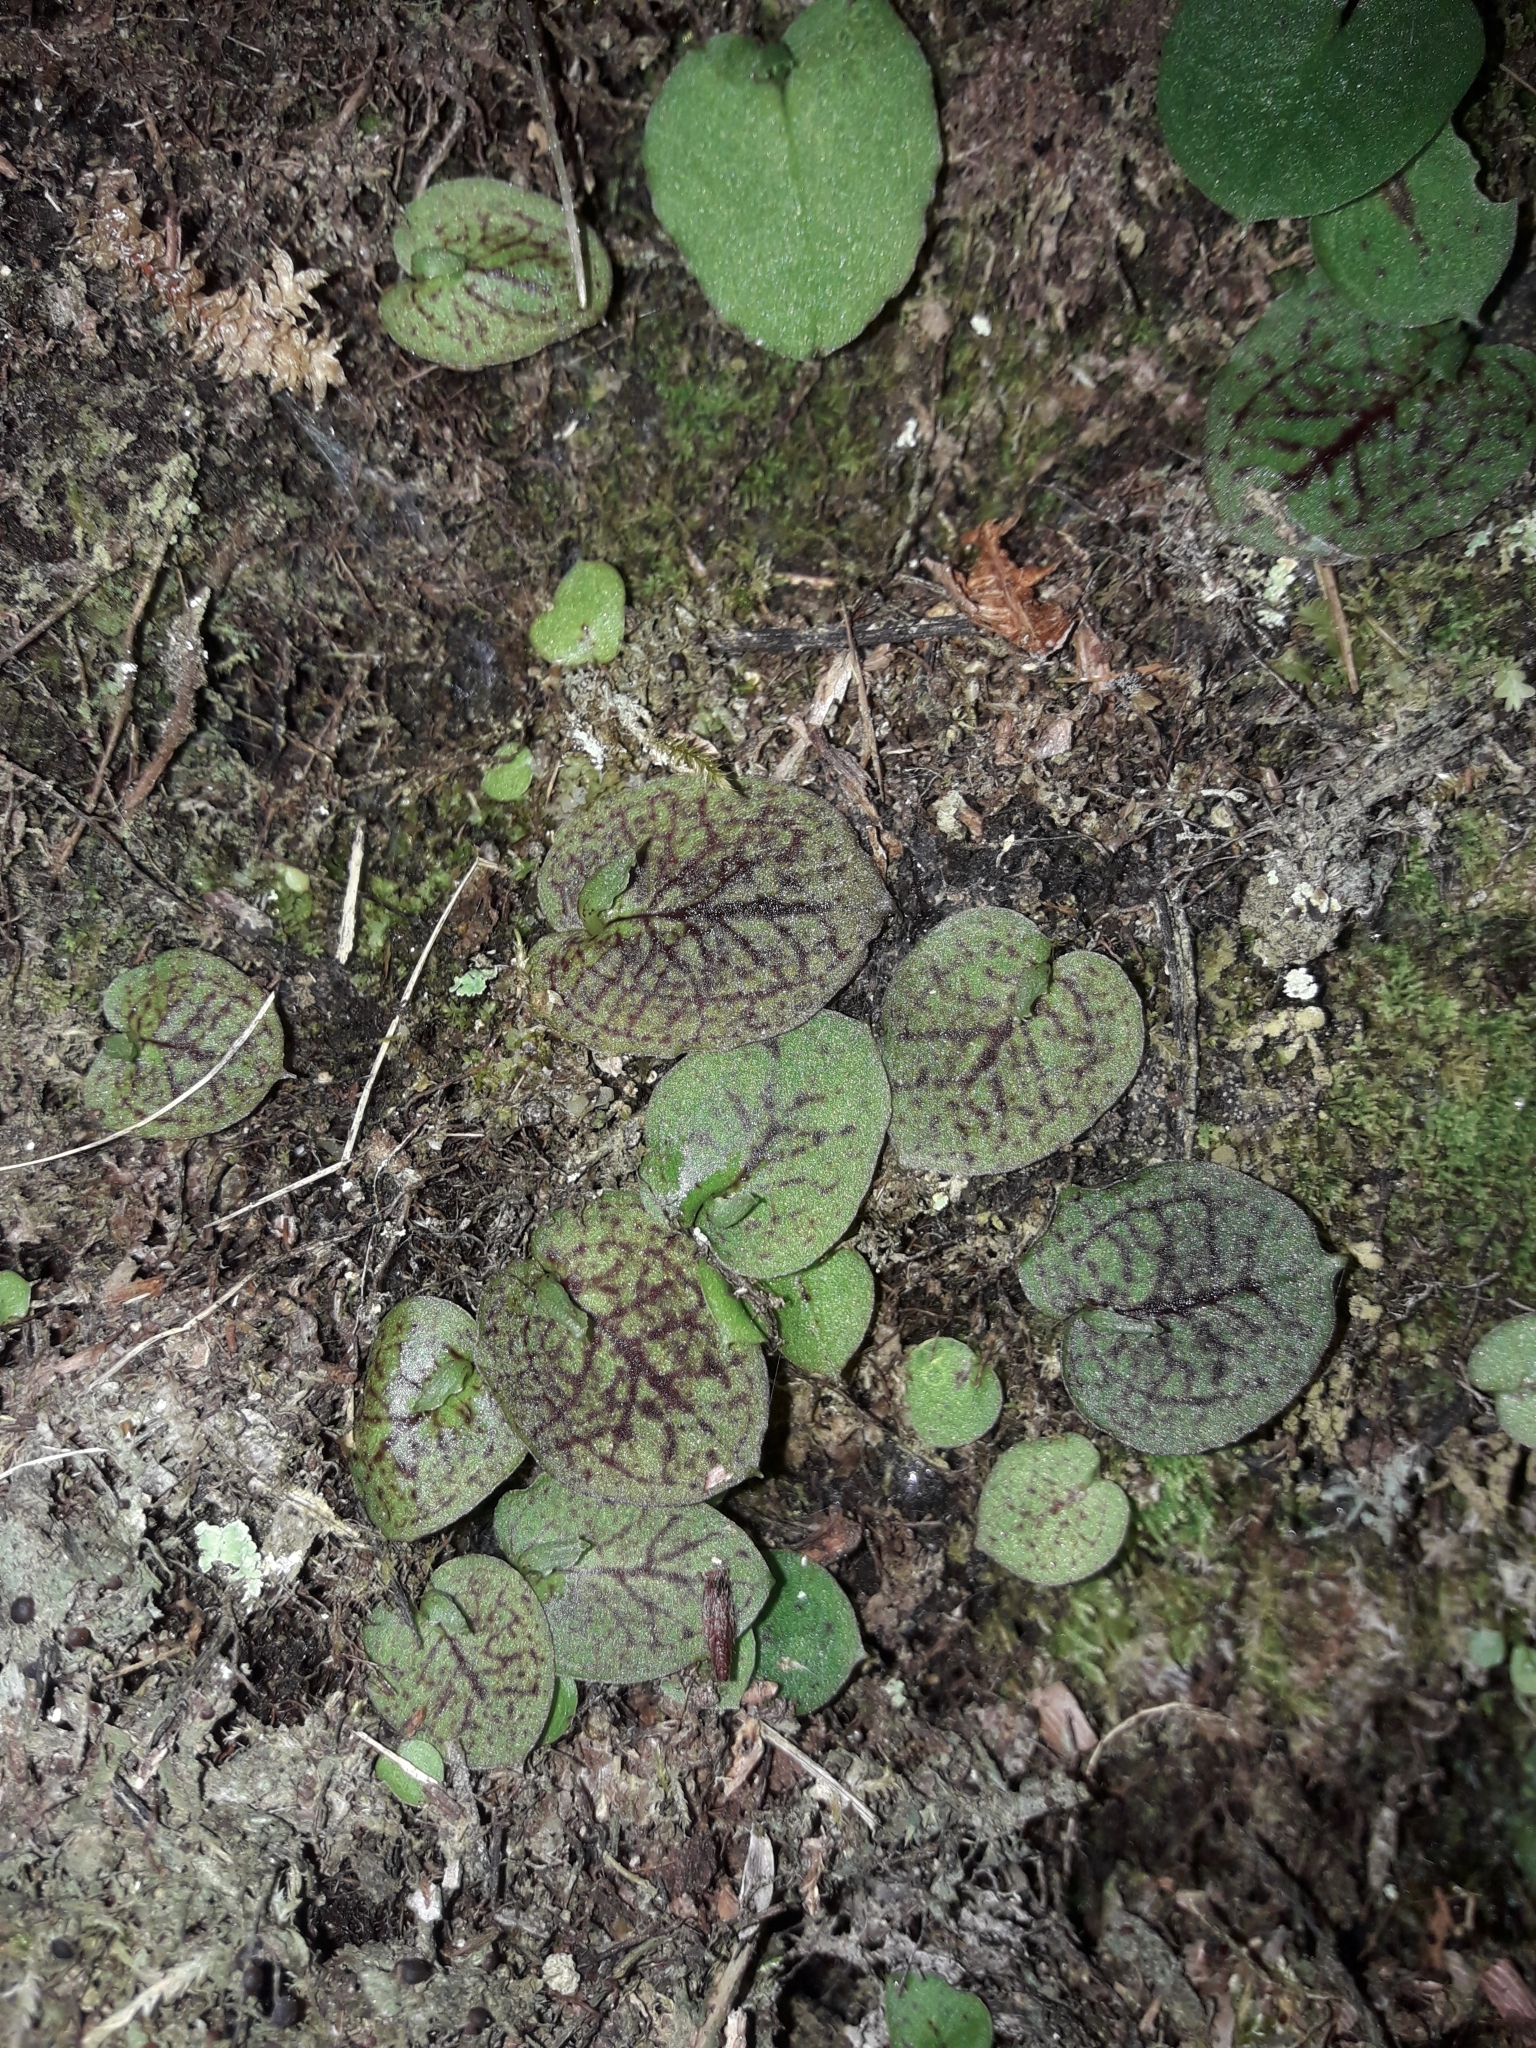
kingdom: Plantae
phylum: Tracheophyta
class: Liliopsida
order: Asparagales
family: Orchidaceae
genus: Corybas
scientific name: Corybas oblongus
